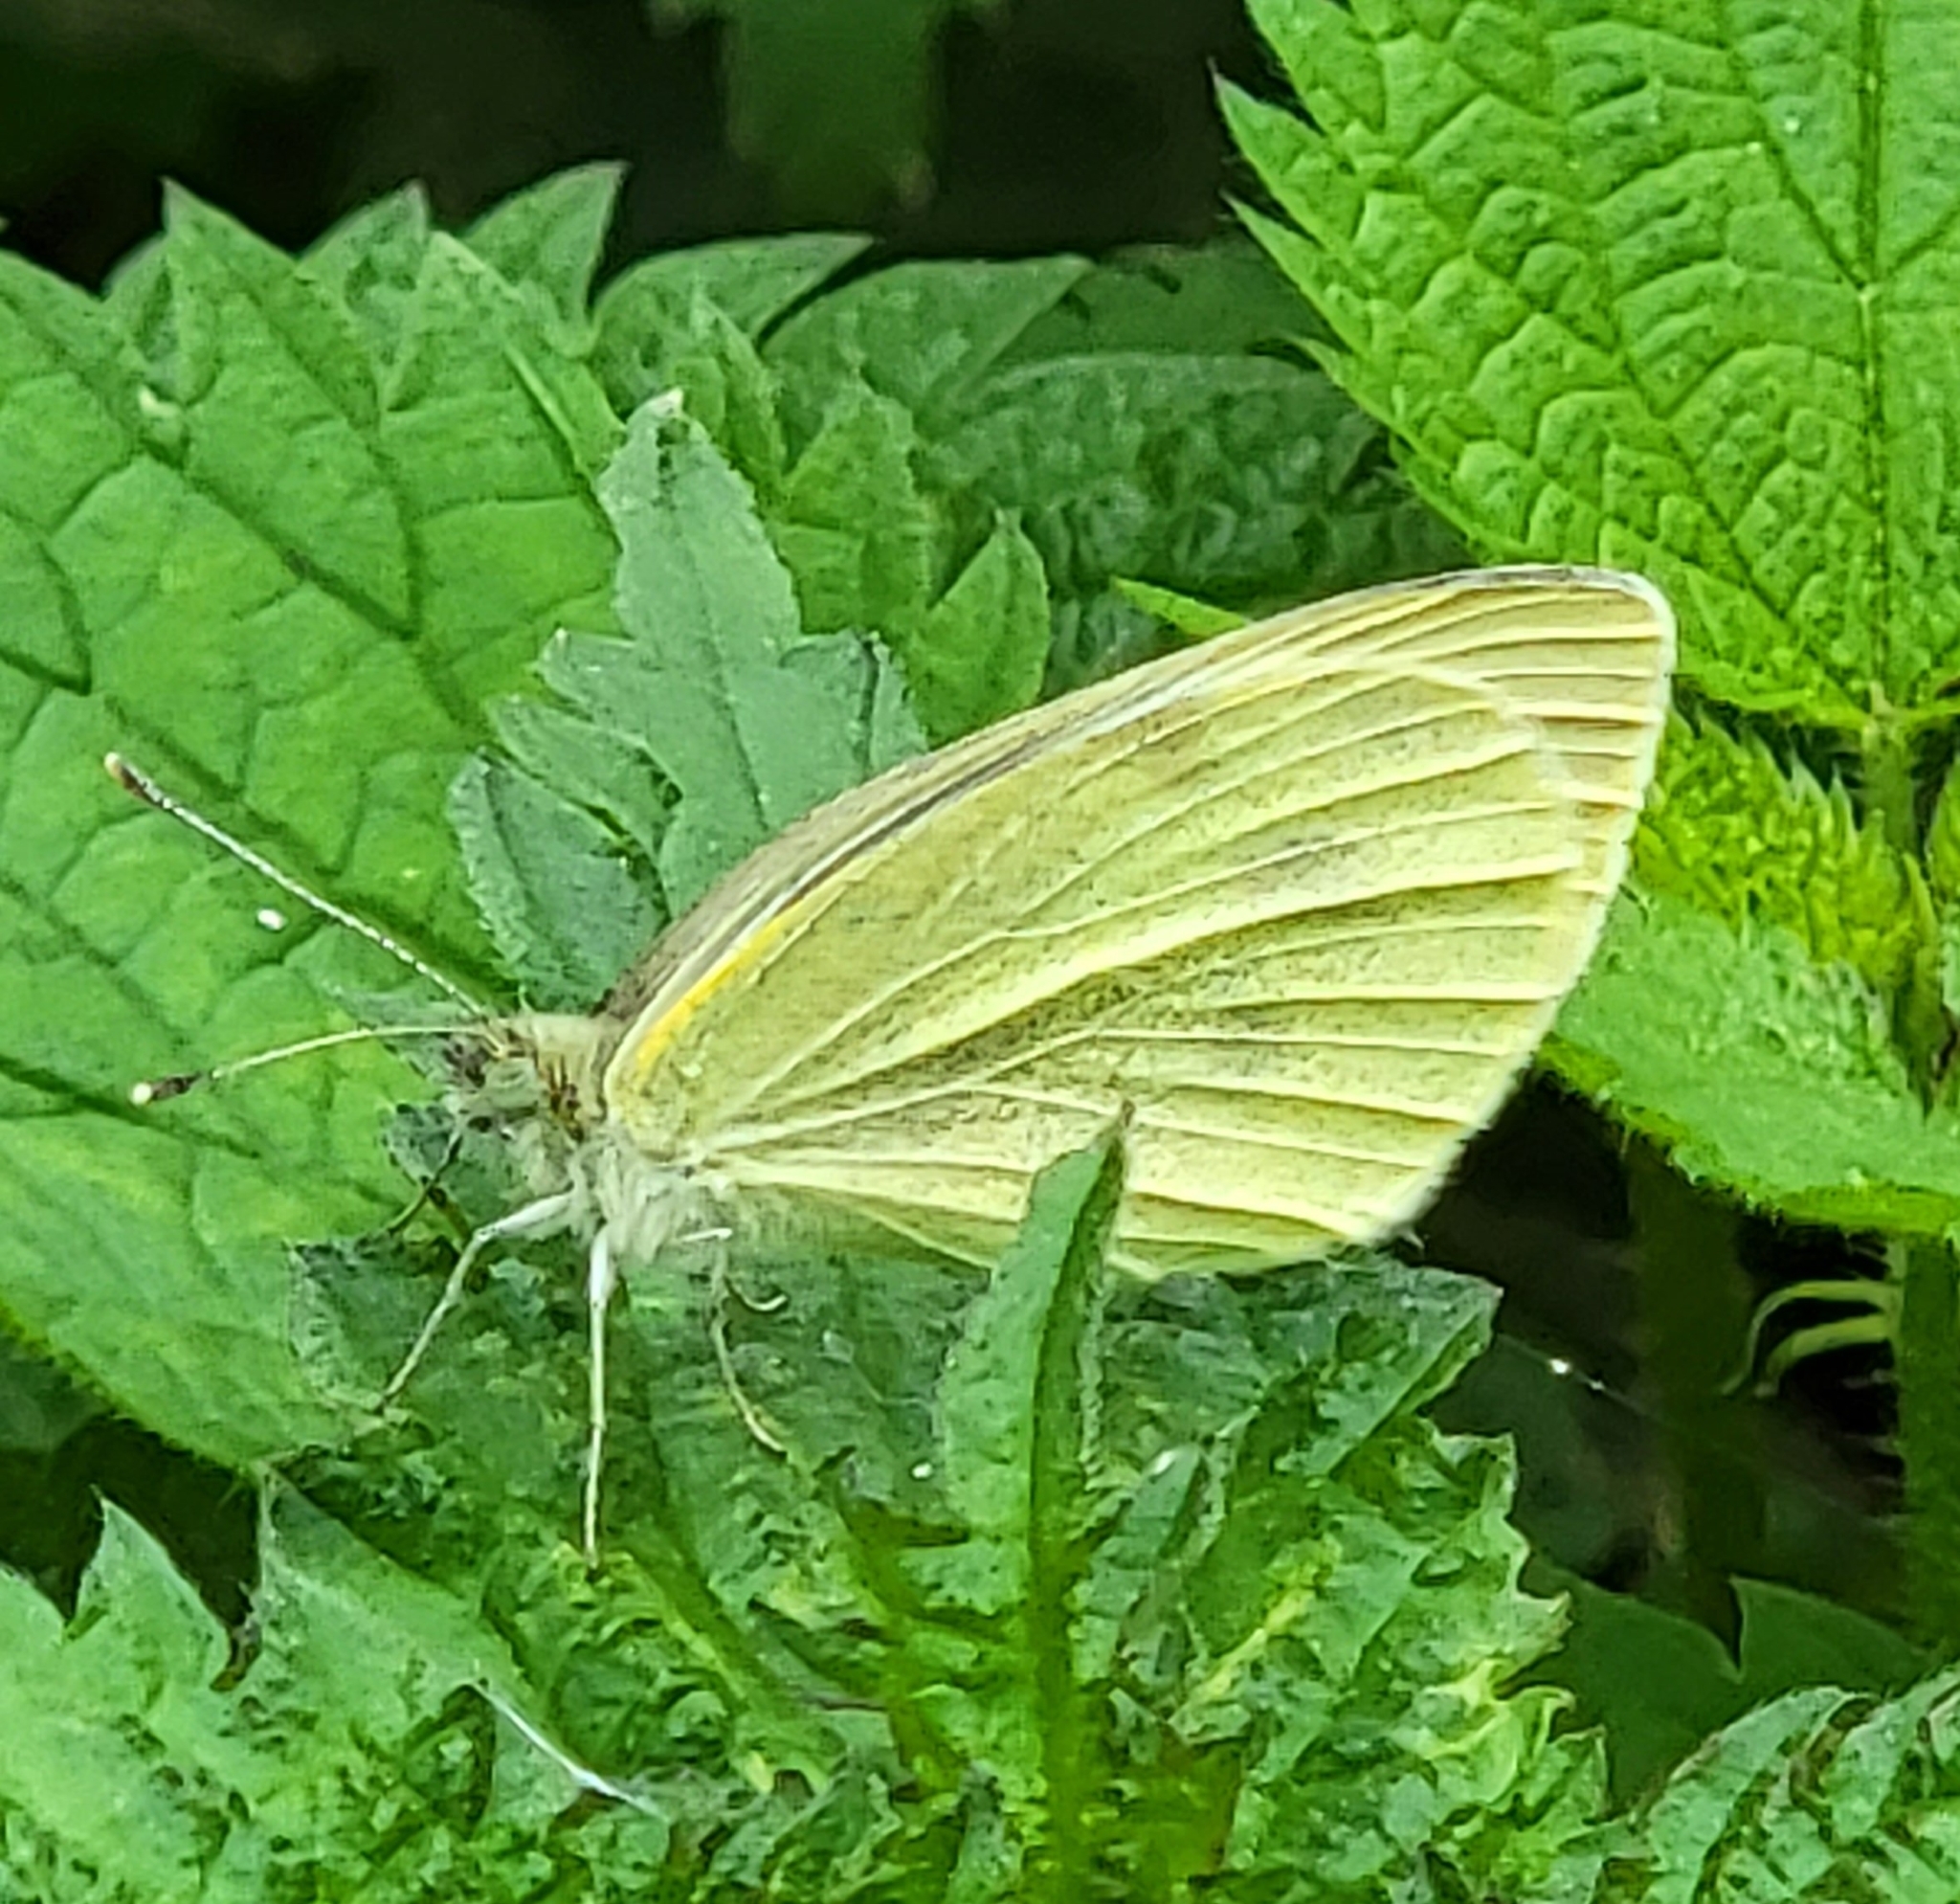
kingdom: Animalia
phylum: Arthropoda
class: Insecta
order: Lepidoptera
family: Pieridae
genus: Pieris
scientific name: Pieris rapae
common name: Small white
